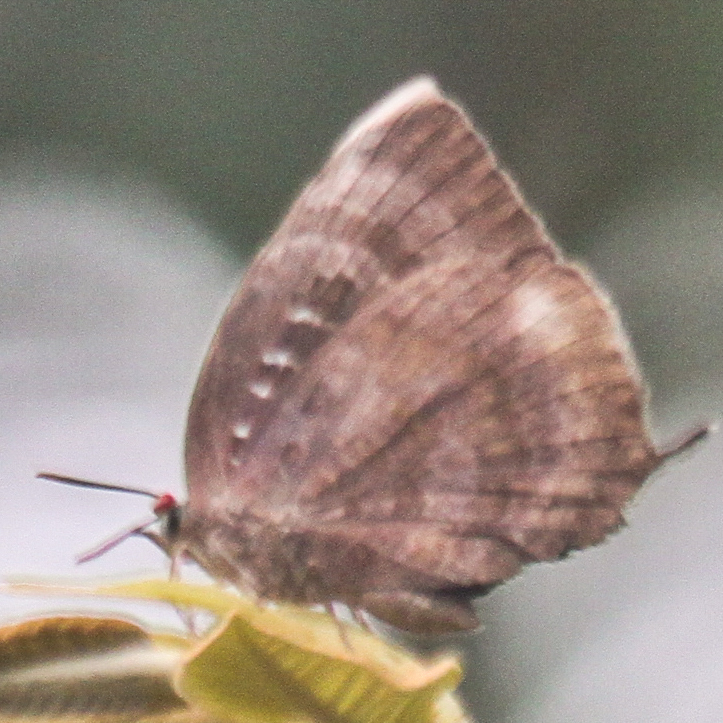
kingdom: Animalia
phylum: Arthropoda
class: Insecta
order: Lepidoptera
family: Lycaenidae
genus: Arhopala
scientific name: Arhopala centaurus
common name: Dull oak-blue
